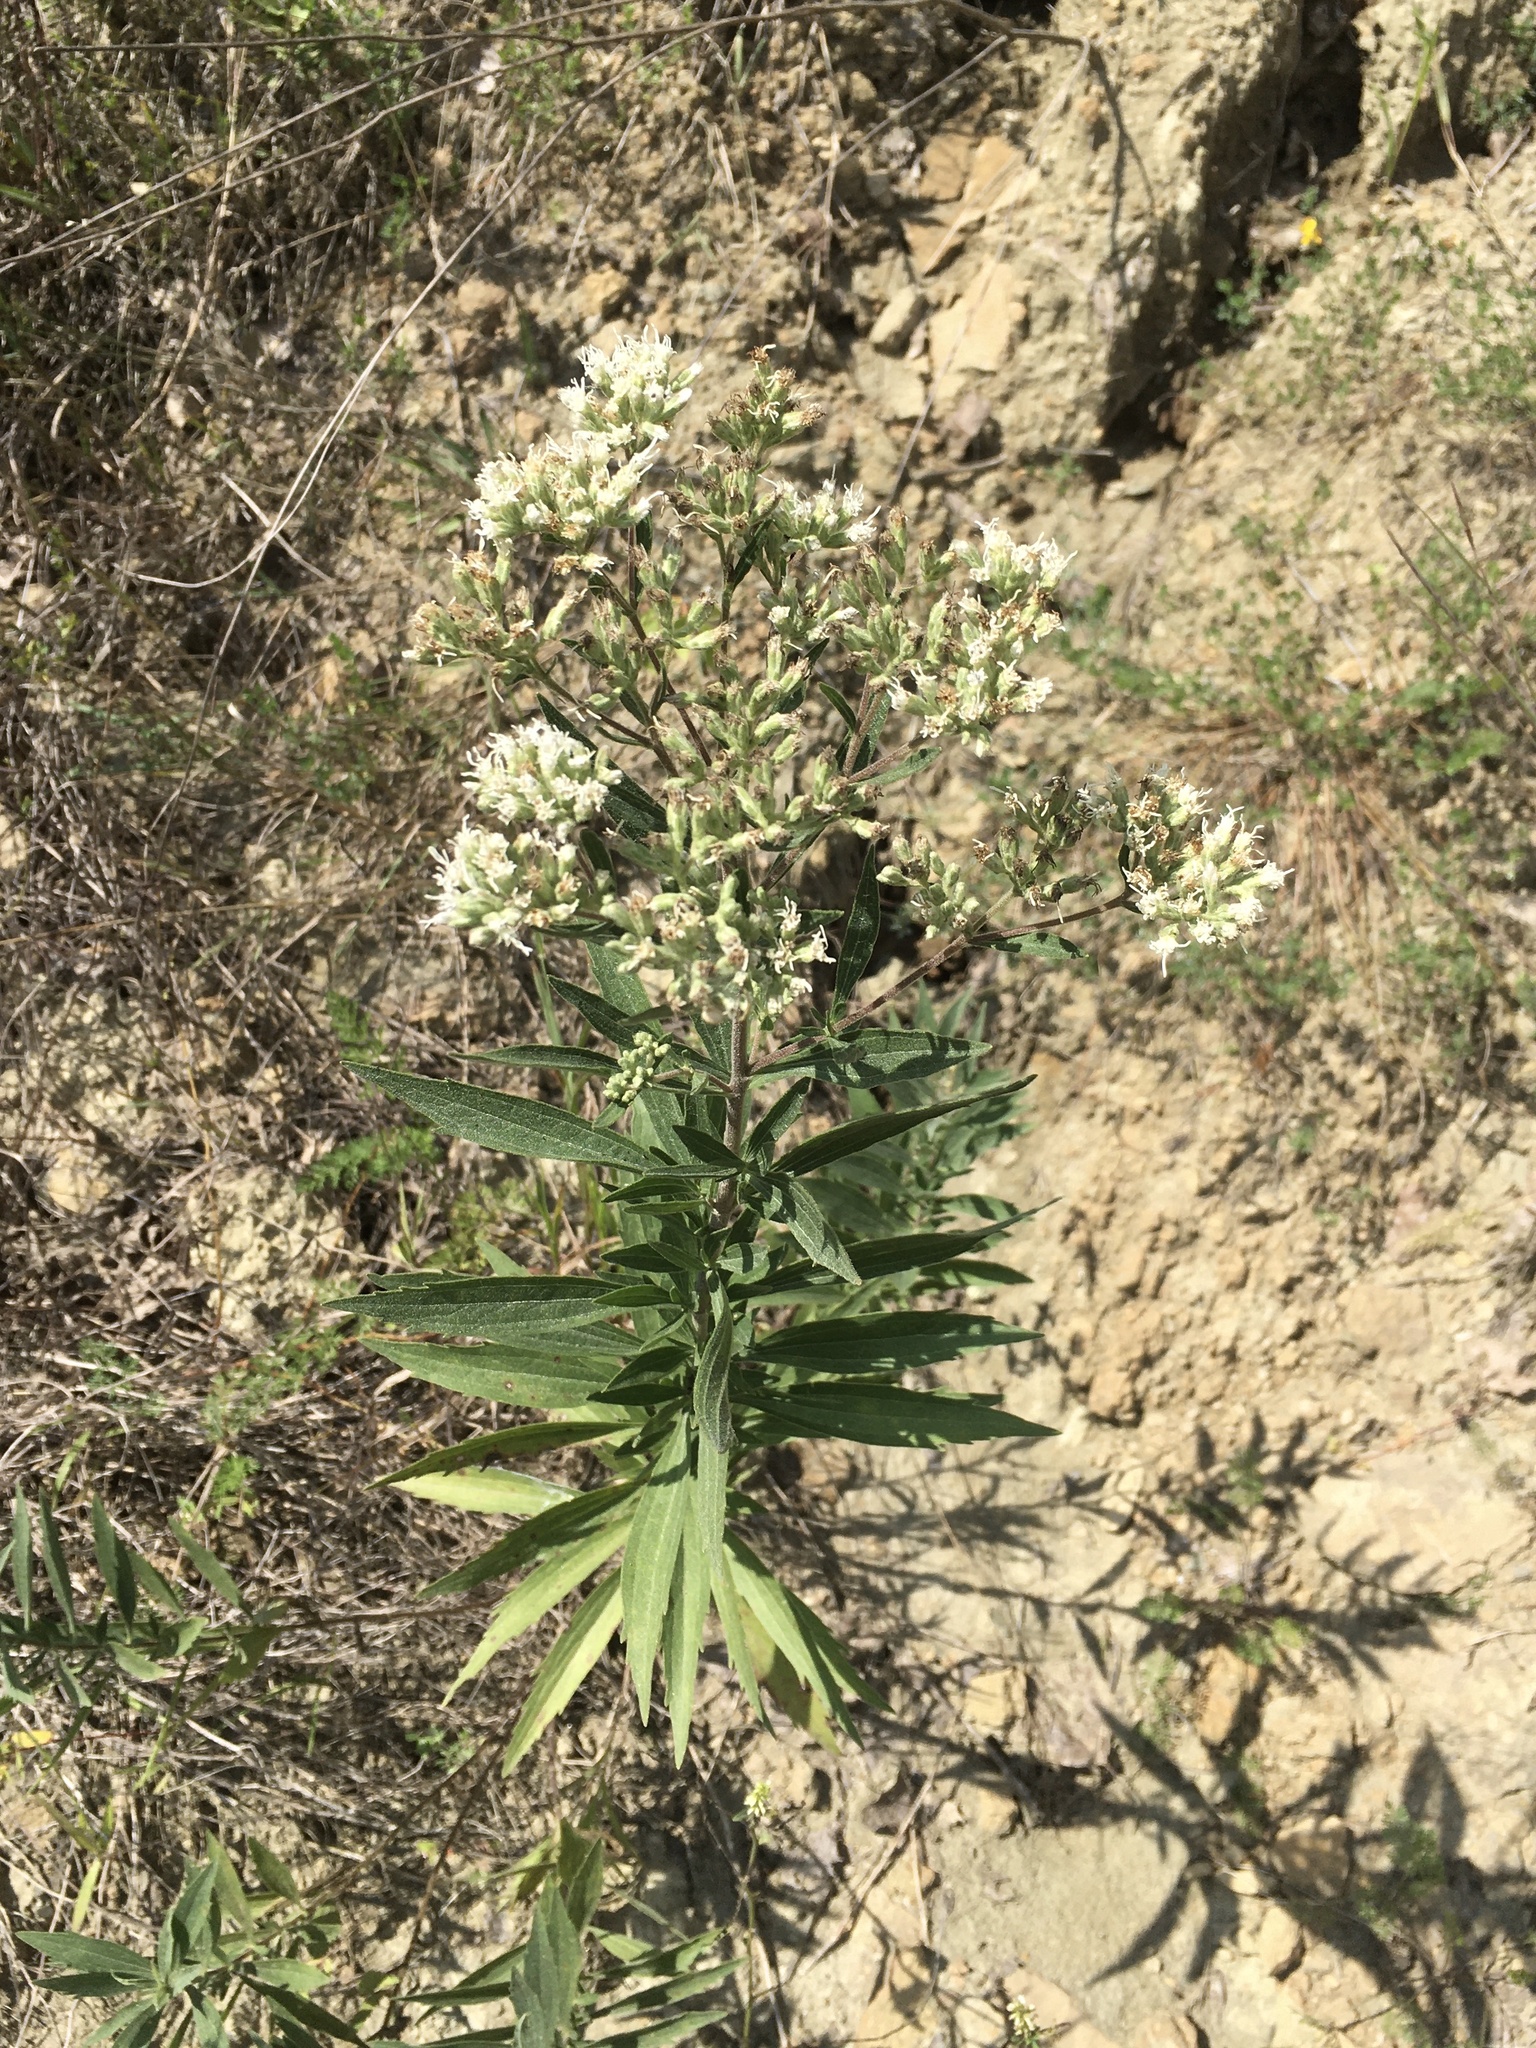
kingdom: Plantae
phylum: Tracheophyta
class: Magnoliopsida
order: Asterales
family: Asteraceae
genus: Eupatorium
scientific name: Eupatorium altissimum
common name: Tall thoroughwort
